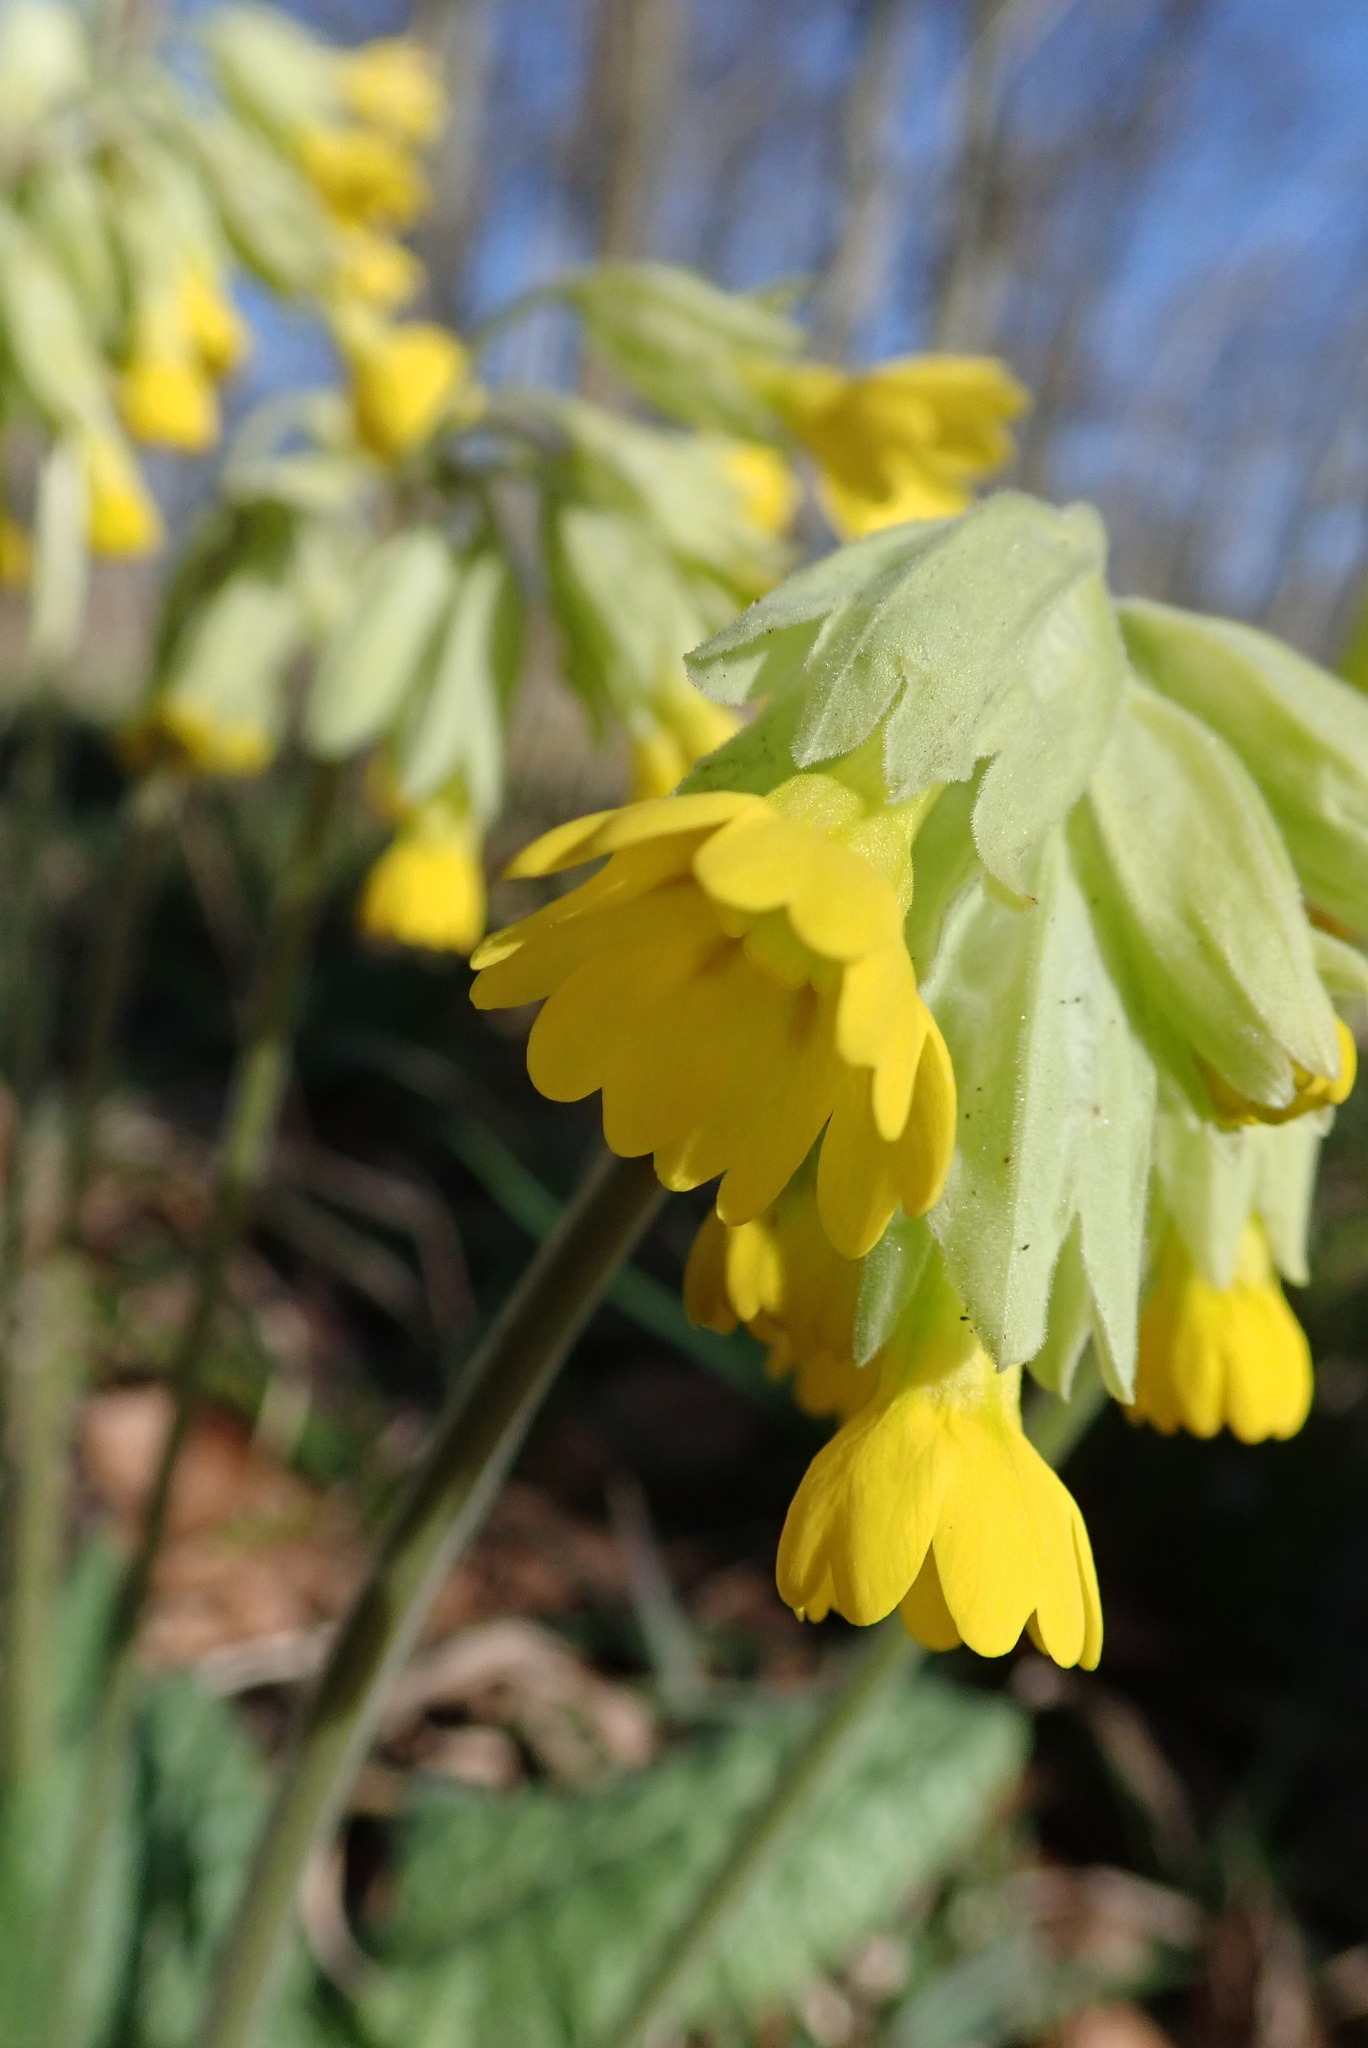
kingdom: Plantae
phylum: Tracheophyta
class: Magnoliopsida
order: Ericales
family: Primulaceae
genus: Primula
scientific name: Primula veris
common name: Cowslip
